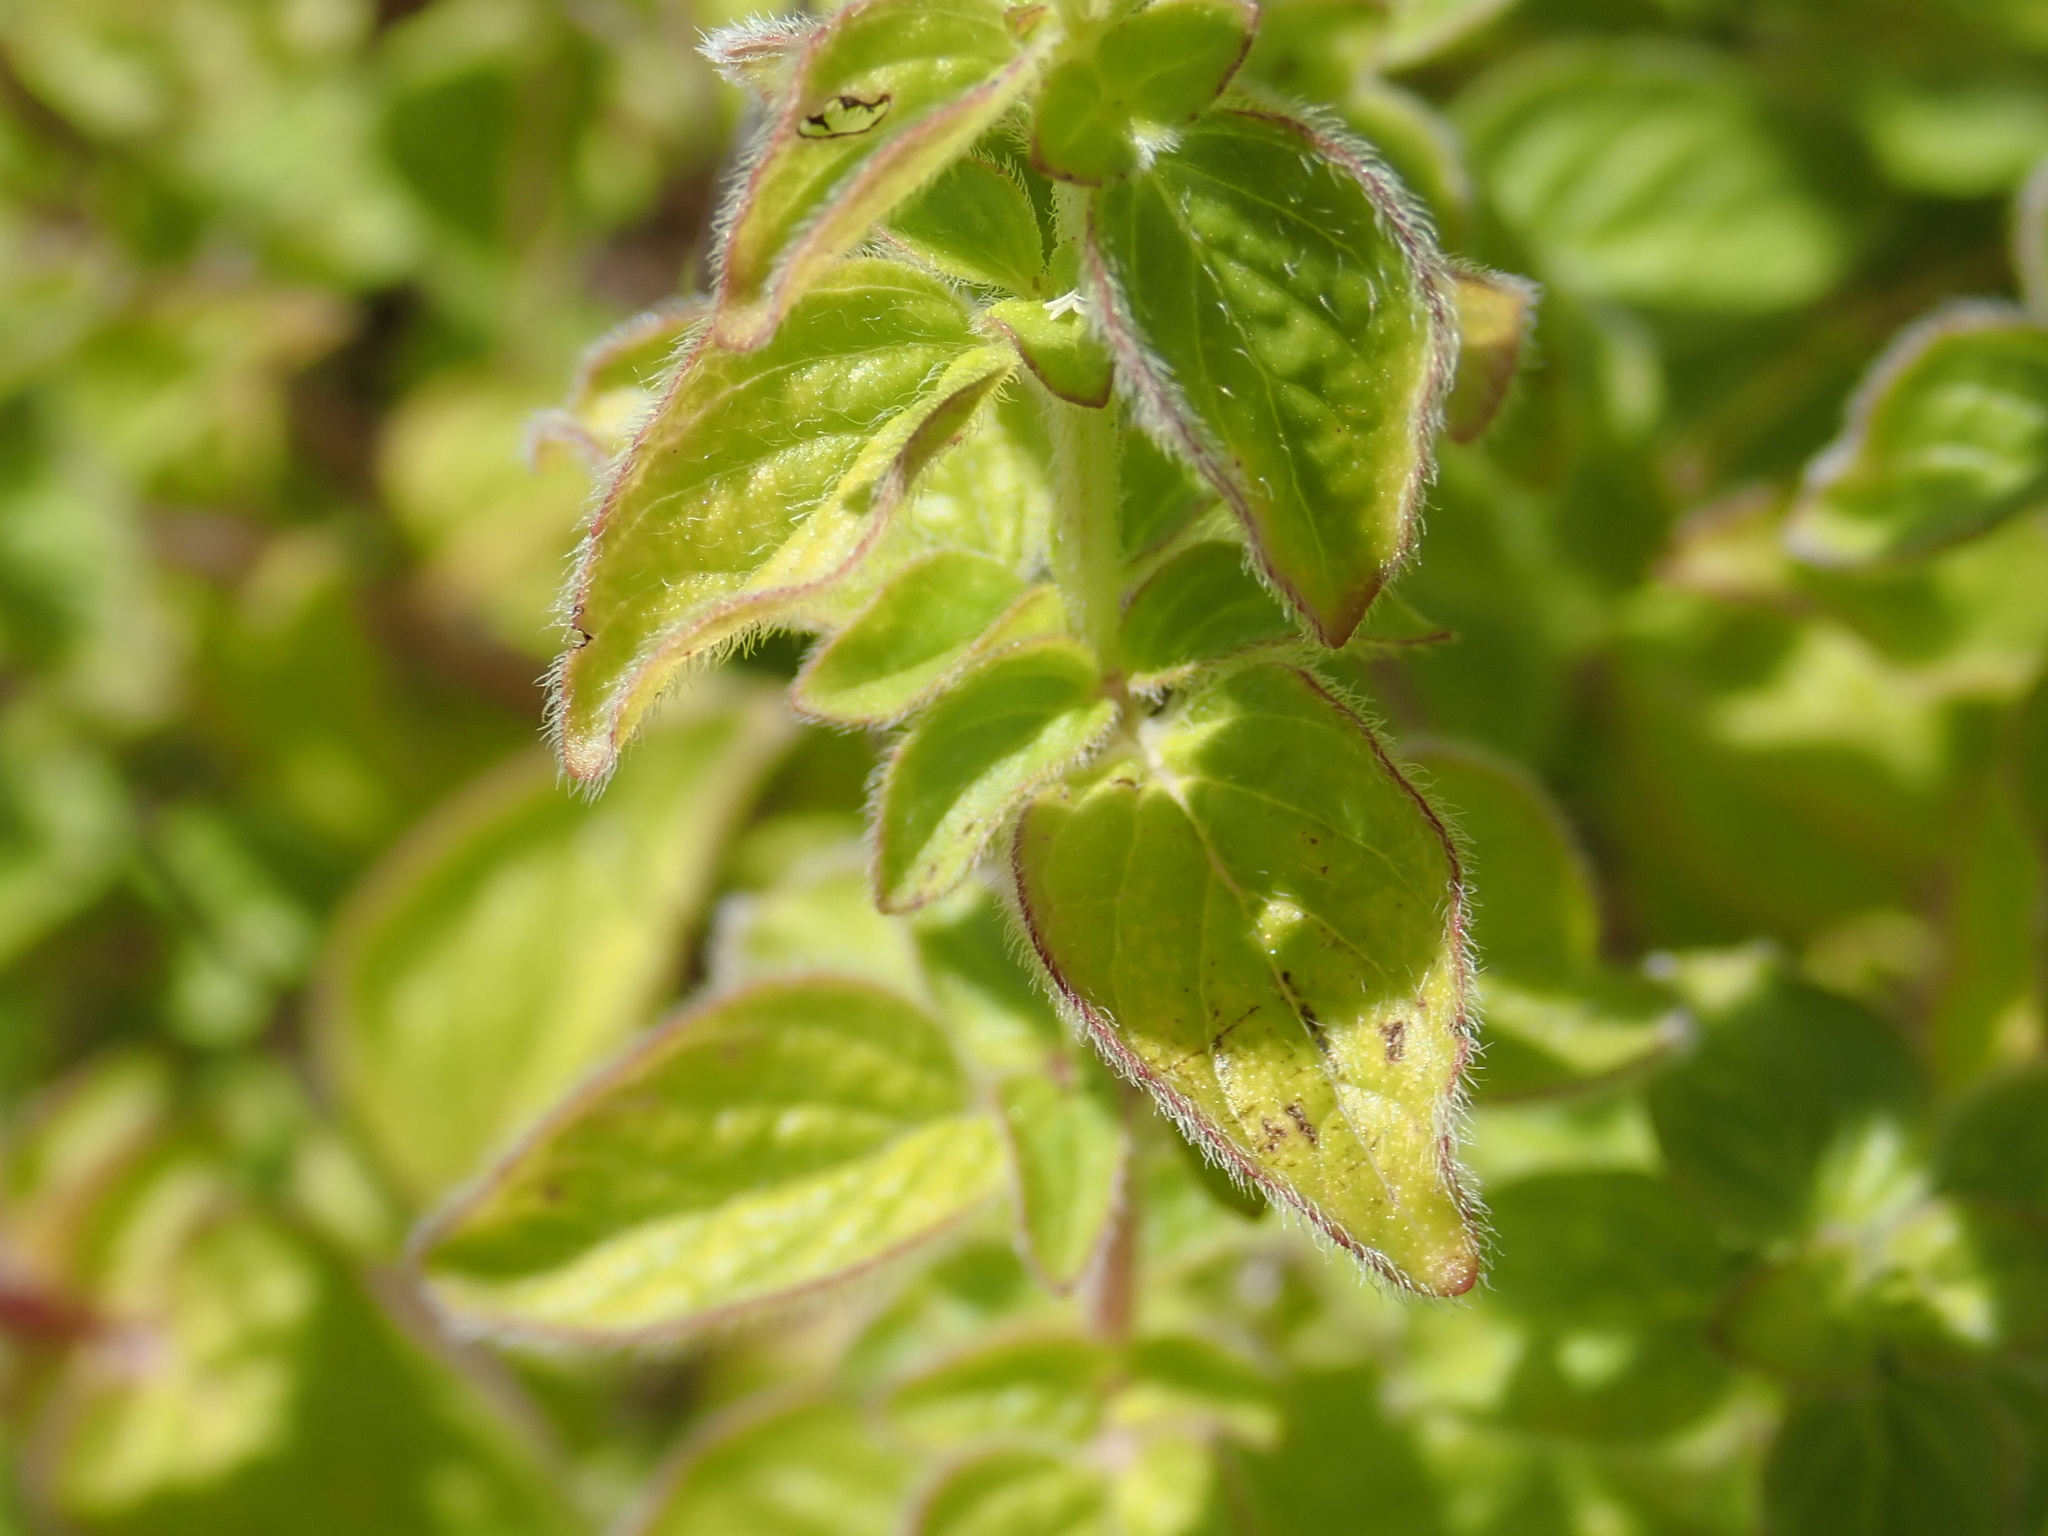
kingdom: Plantae
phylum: Tracheophyta
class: Magnoliopsida
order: Lamiales
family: Lamiaceae
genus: Origanum
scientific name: Origanum vulgare
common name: Wild marjoram
